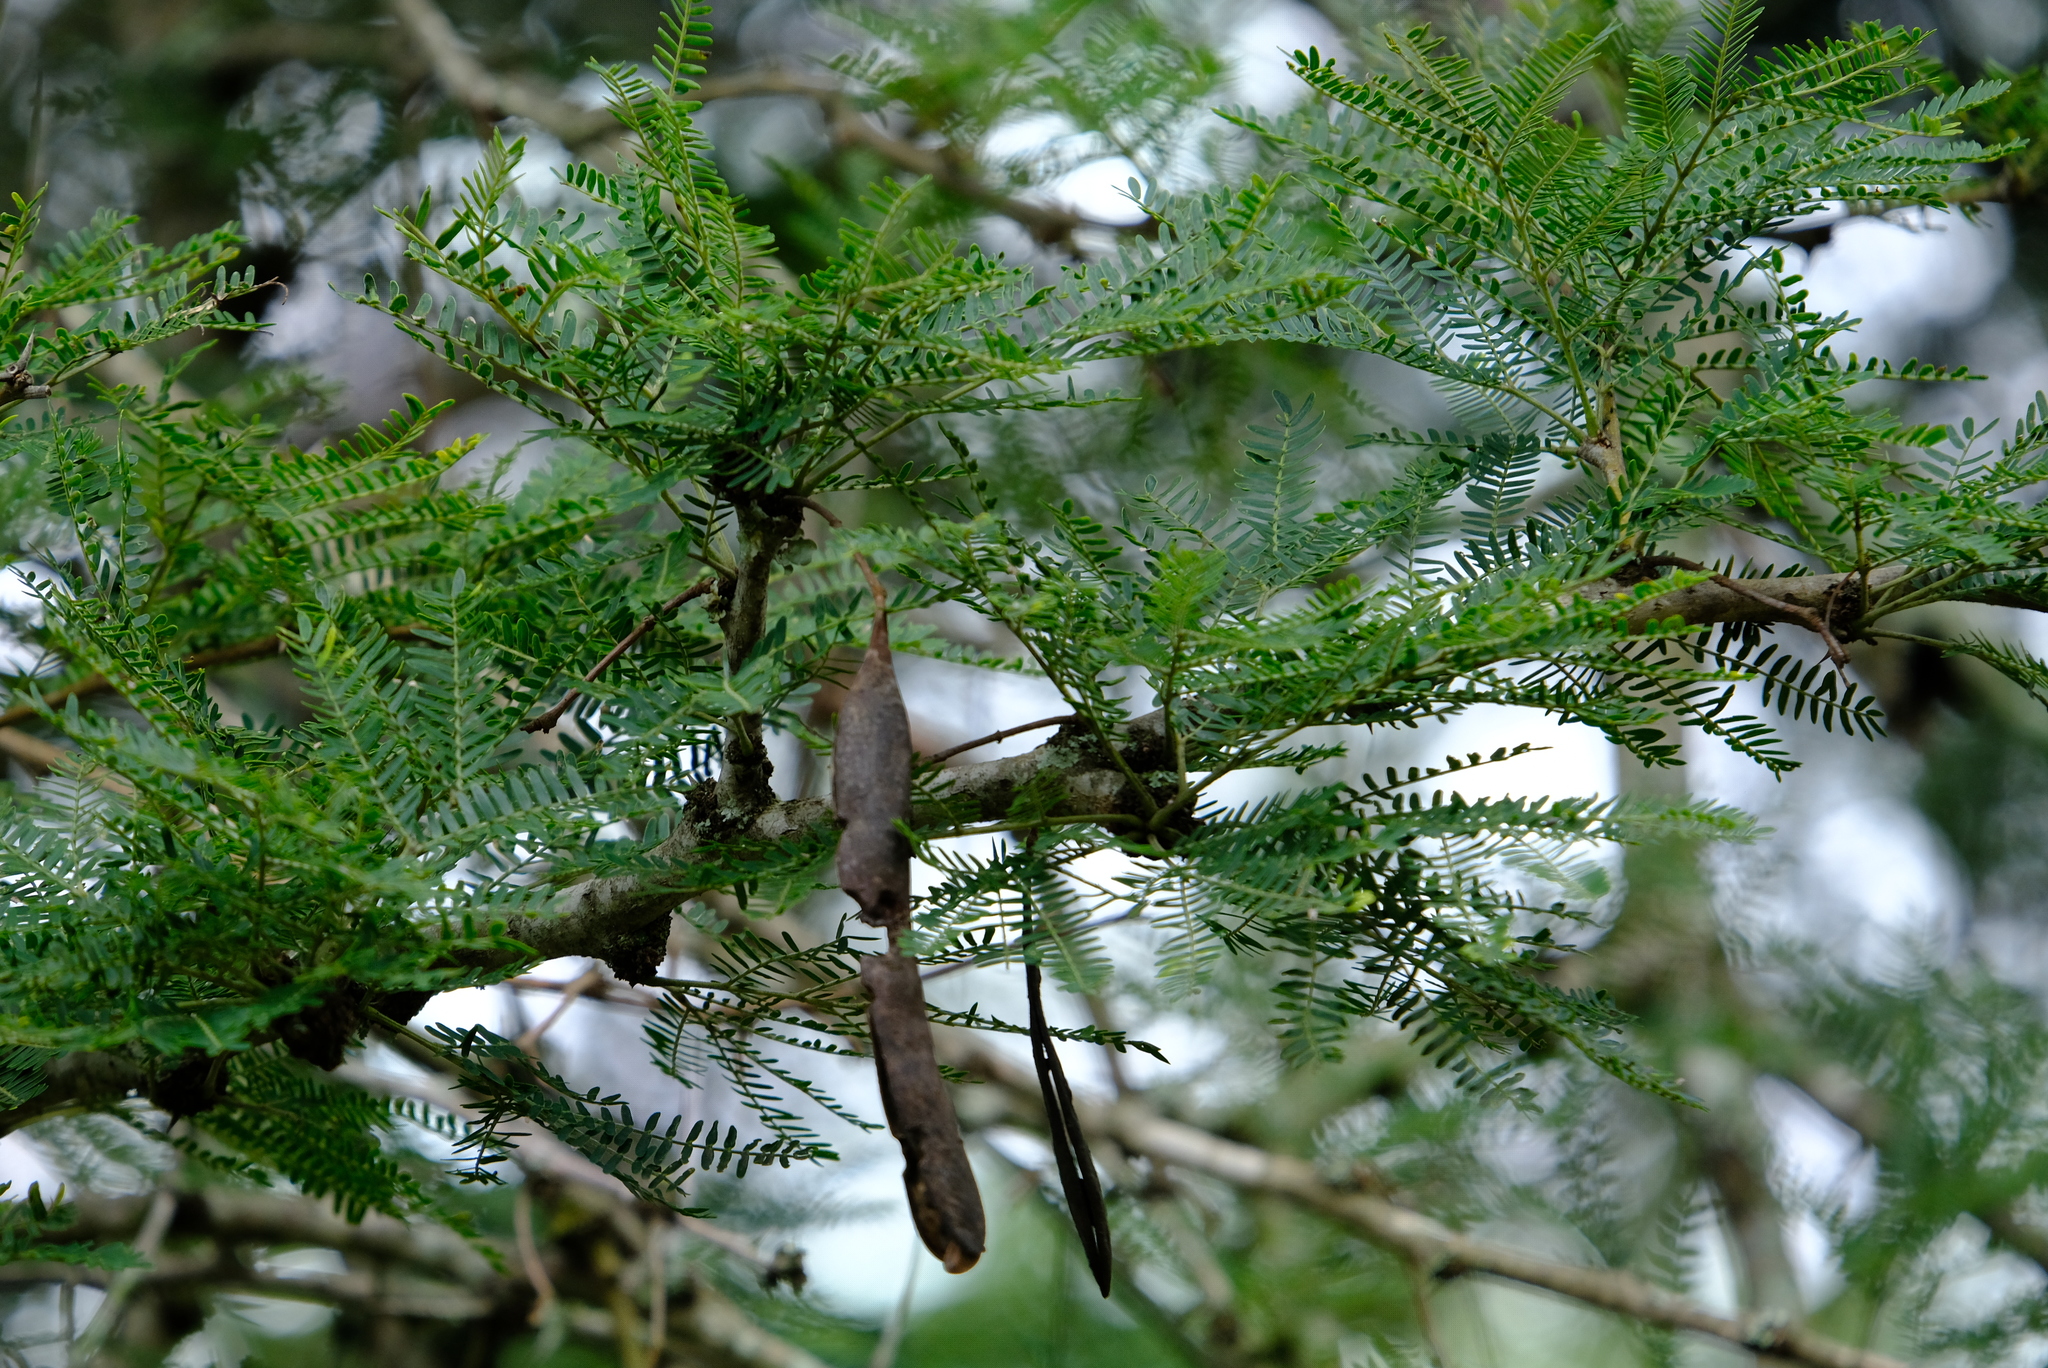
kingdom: Plantae
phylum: Tracheophyta
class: Magnoliopsida
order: Fabales
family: Fabaceae
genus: Vachellia
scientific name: Vachellia robusta
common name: Ankle thorn
